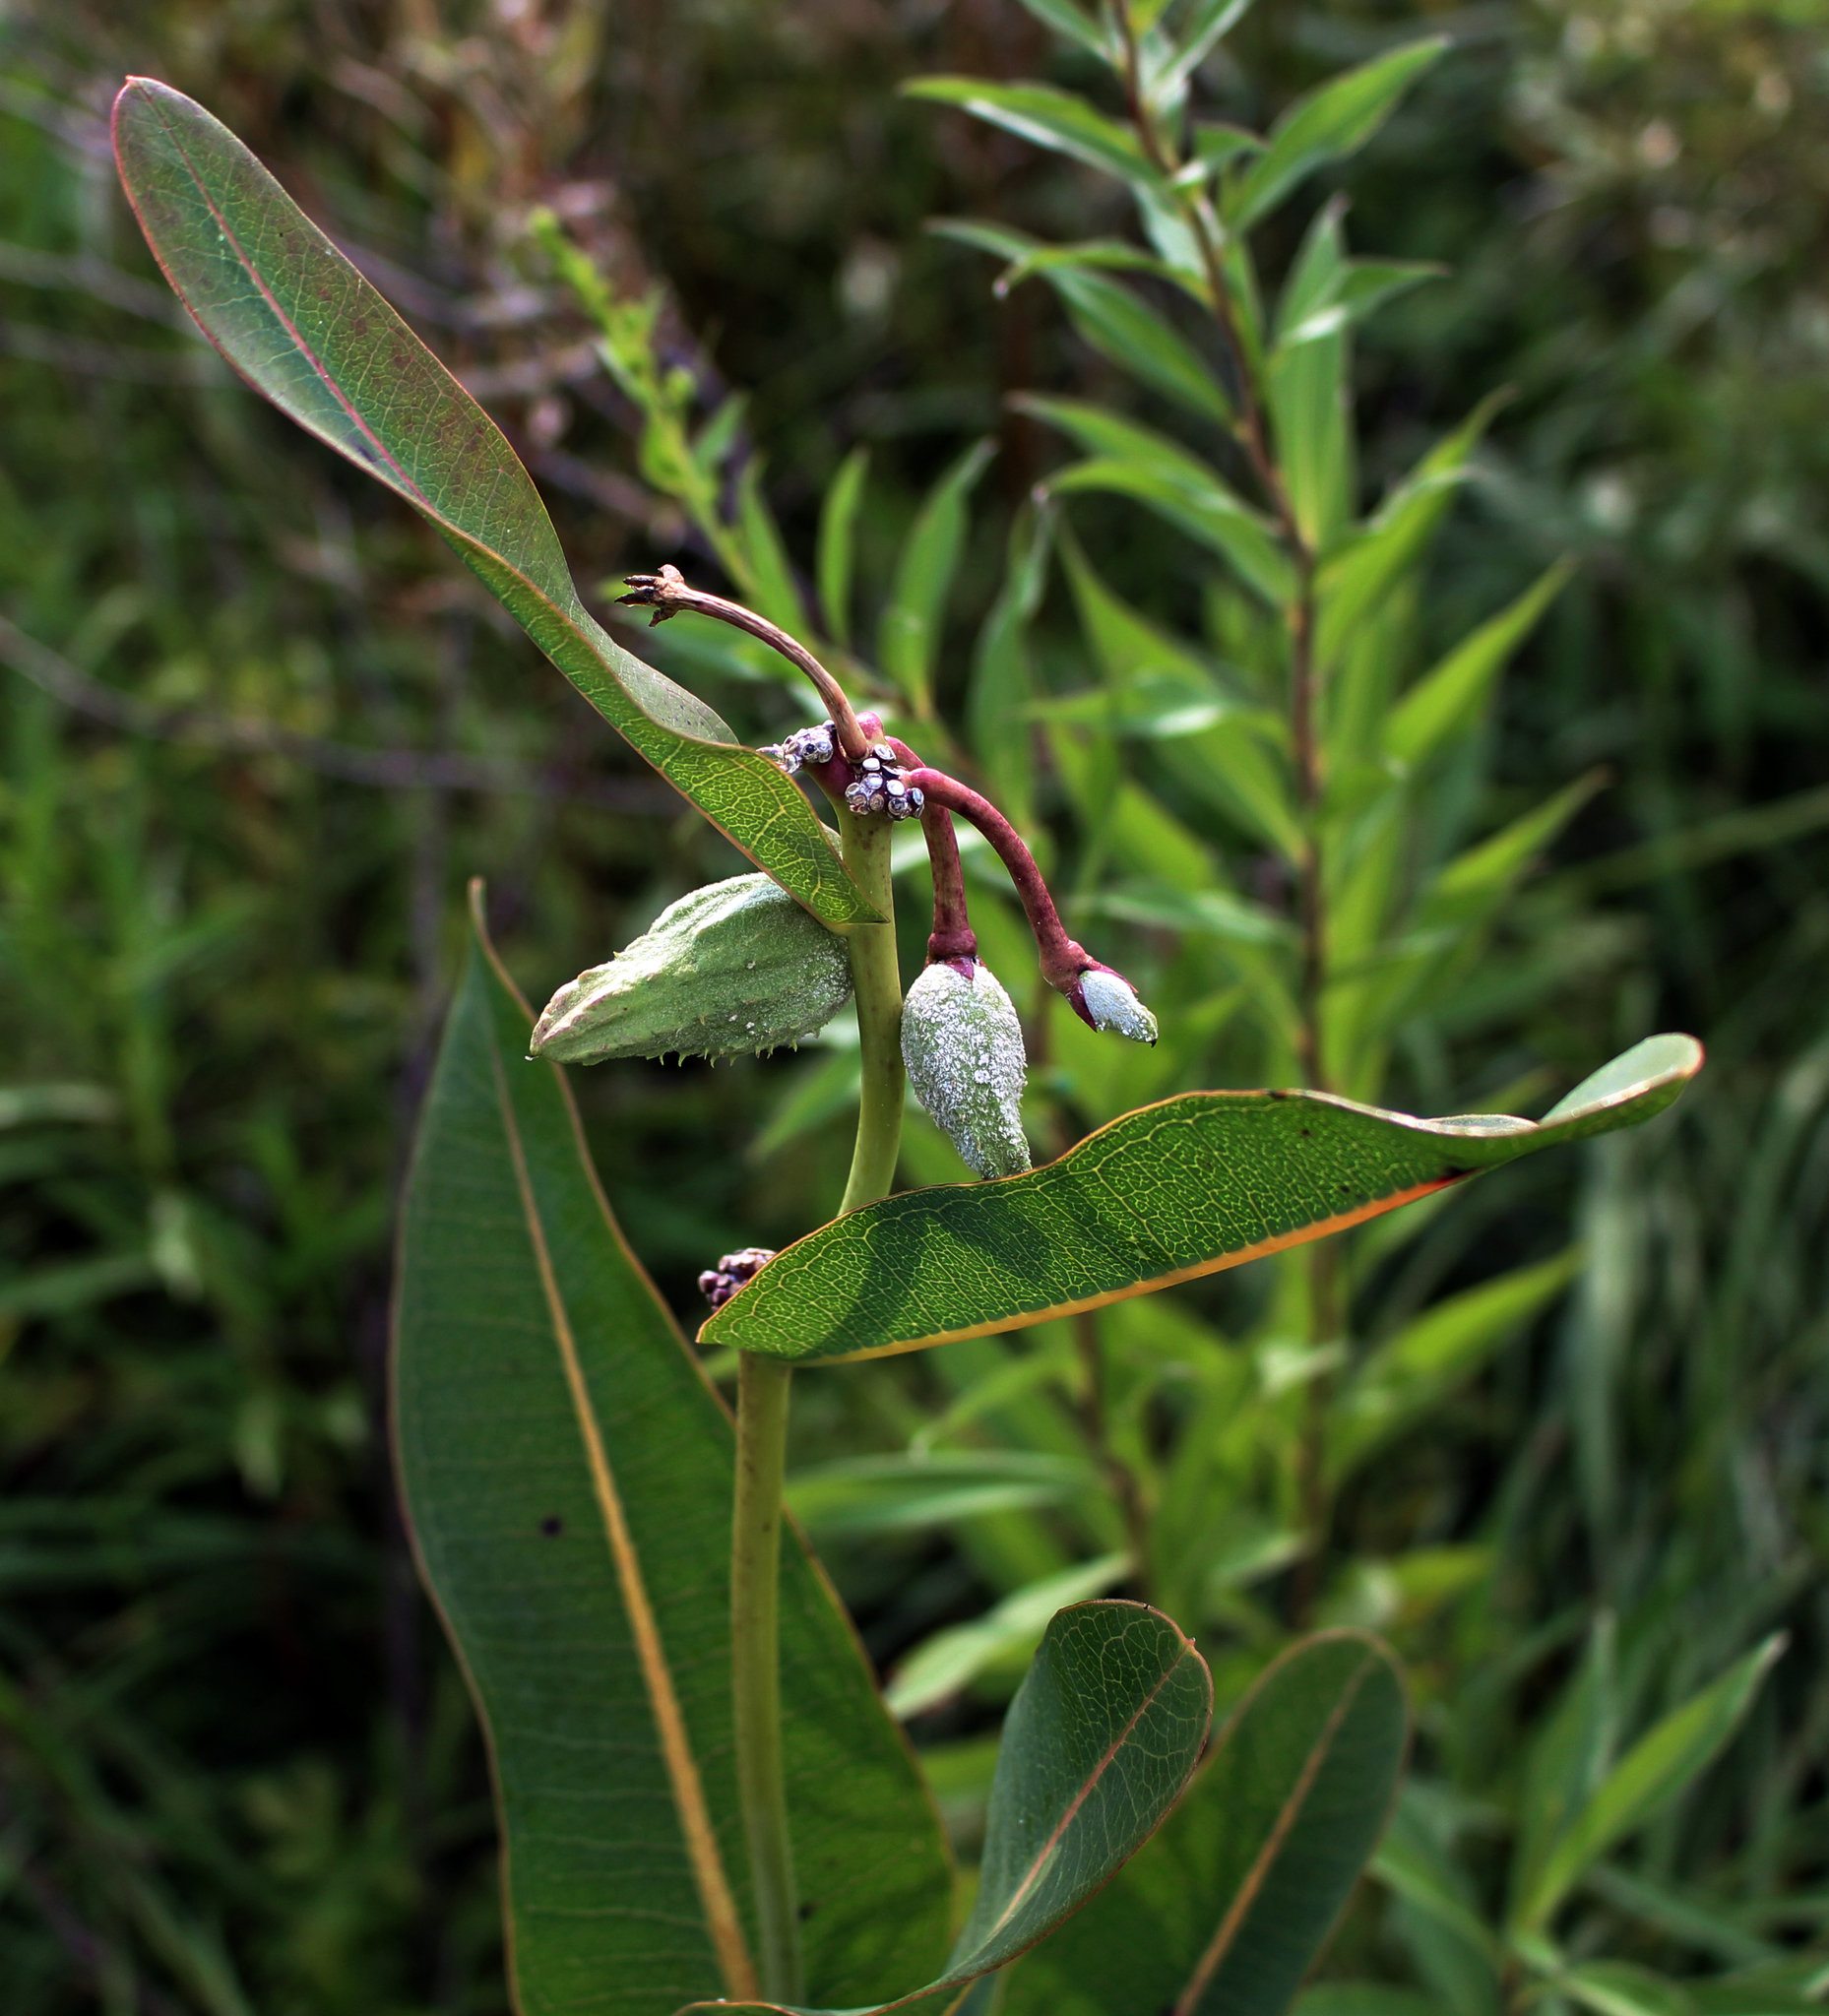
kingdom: Plantae
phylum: Tracheophyta
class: Magnoliopsida
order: Gentianales
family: Apocynaceae
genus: Asclepias
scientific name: Asclepias sullivantii
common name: Prairie milkweed
